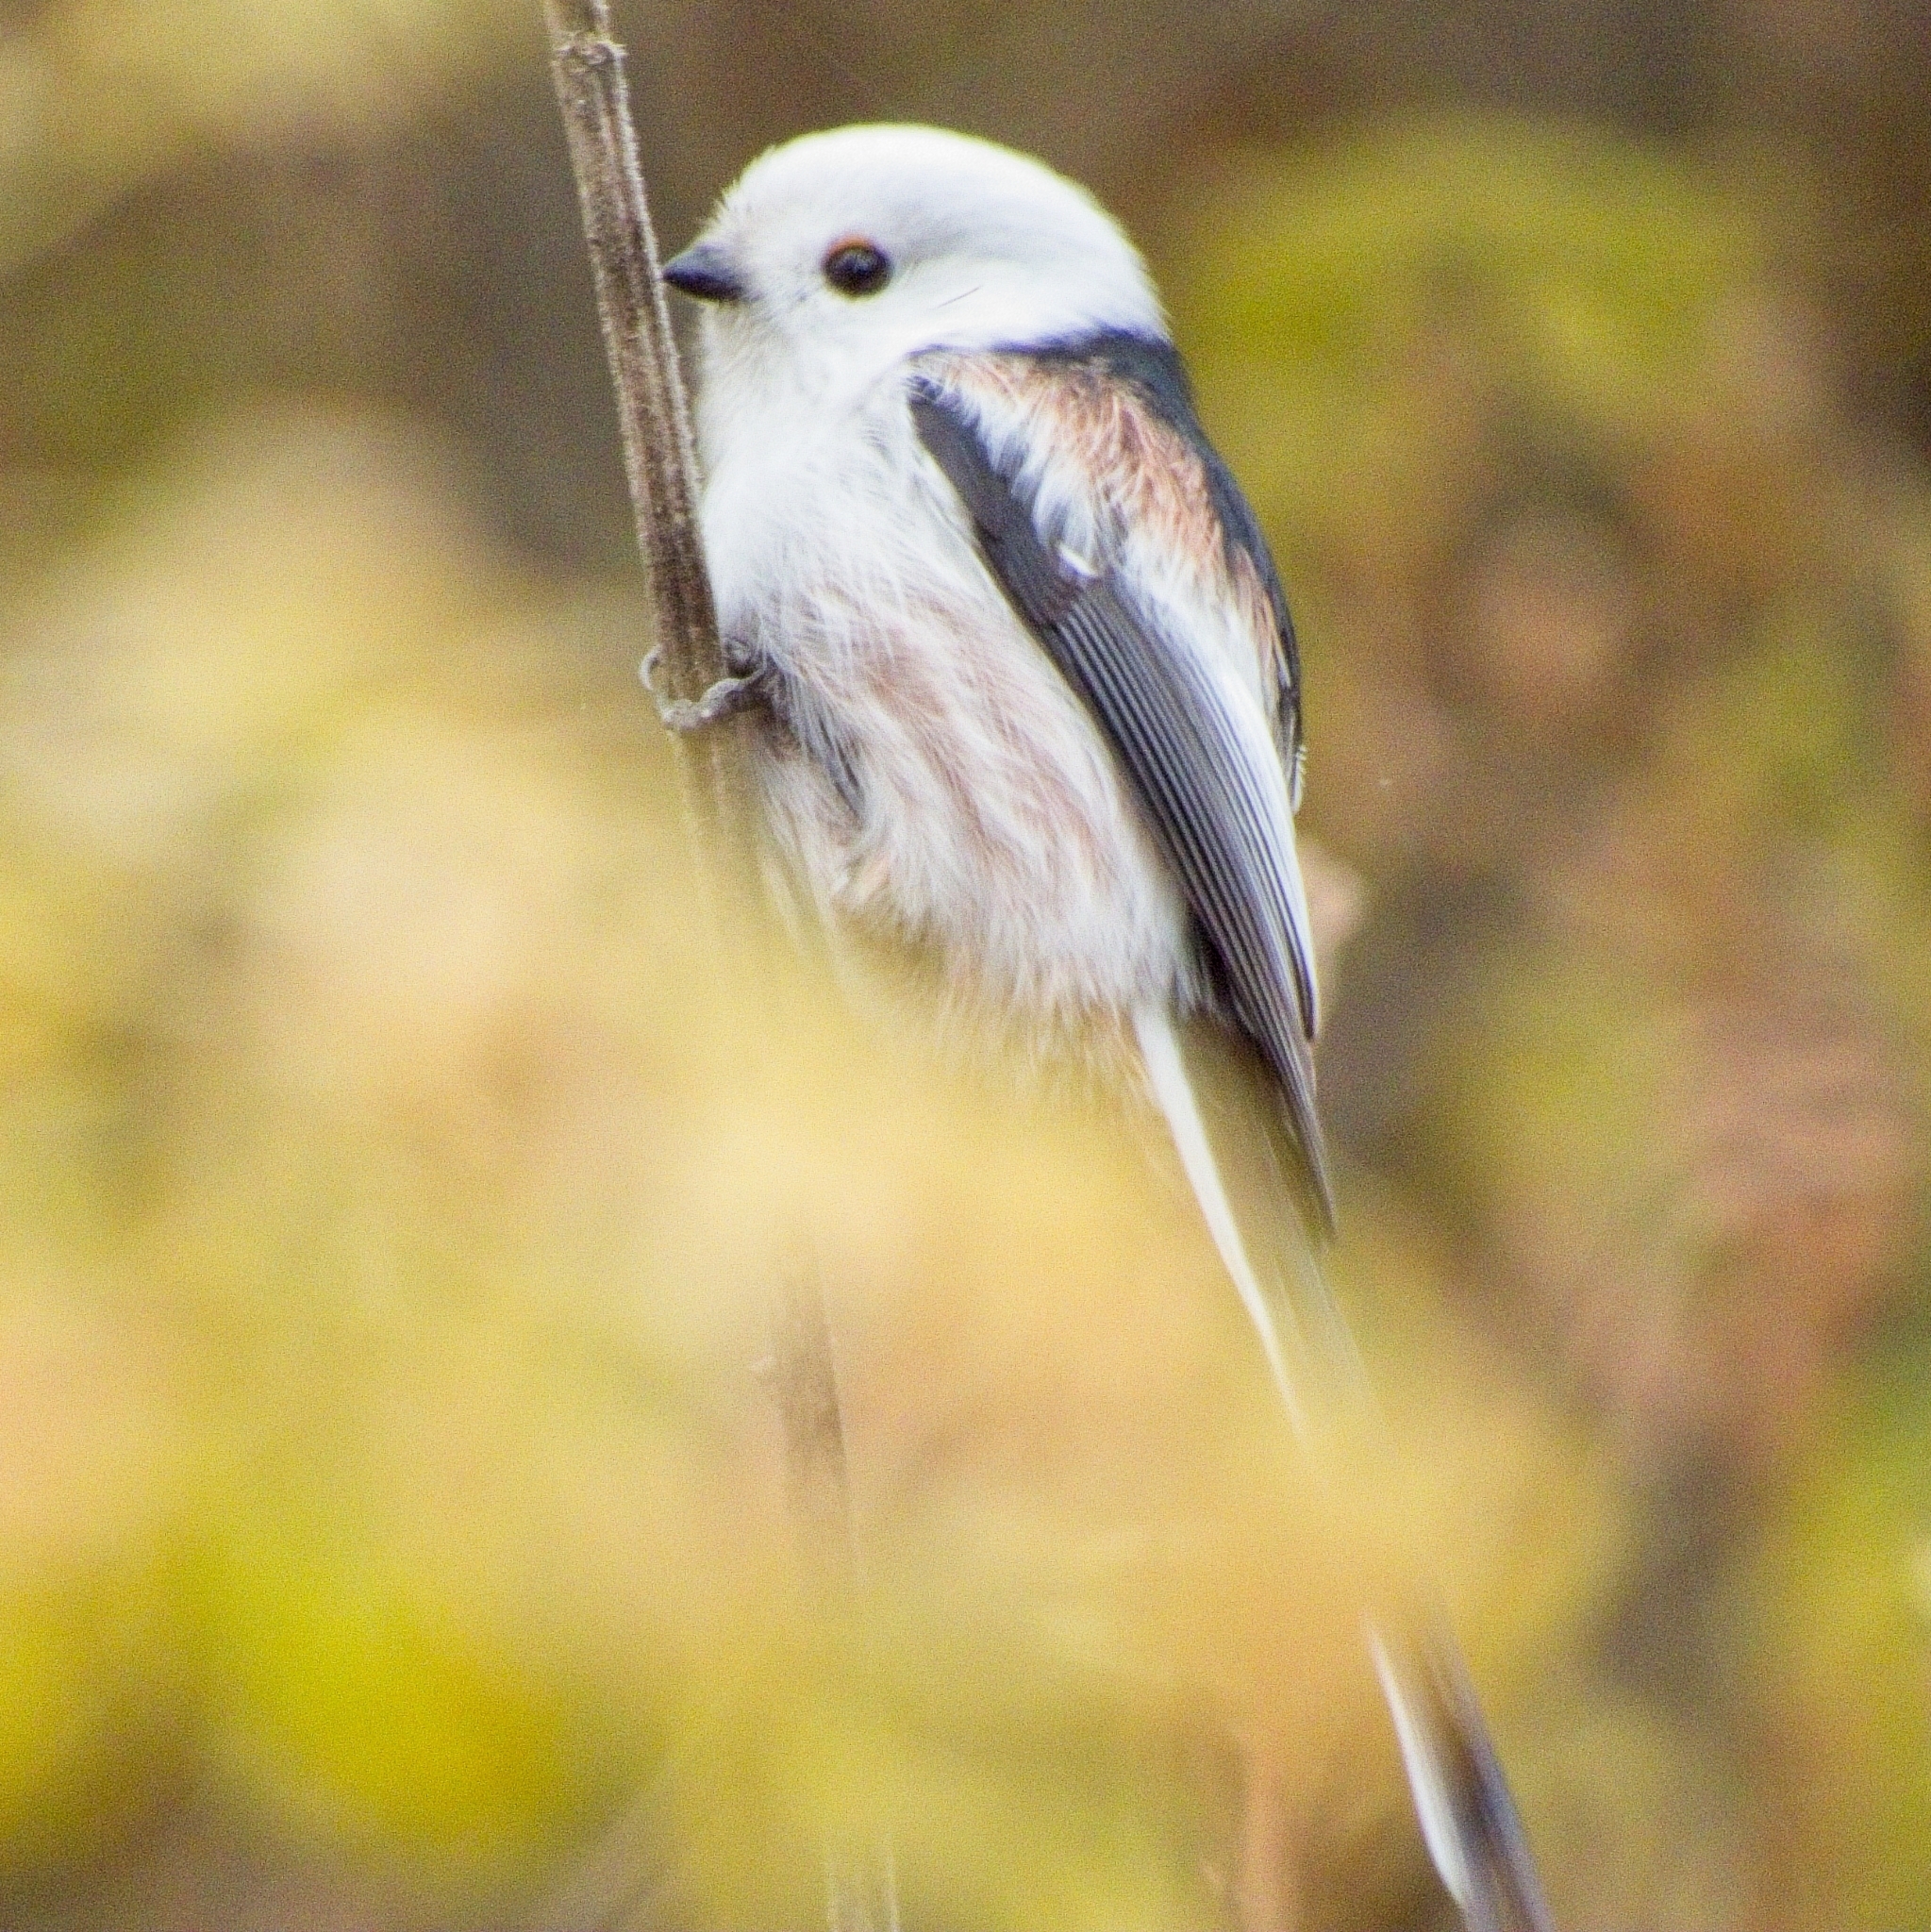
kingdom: Animalia
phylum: Chordata
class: Aves
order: Passeriformes
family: Aegithalidae
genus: Aegithalos
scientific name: Aegithalos caudatus
